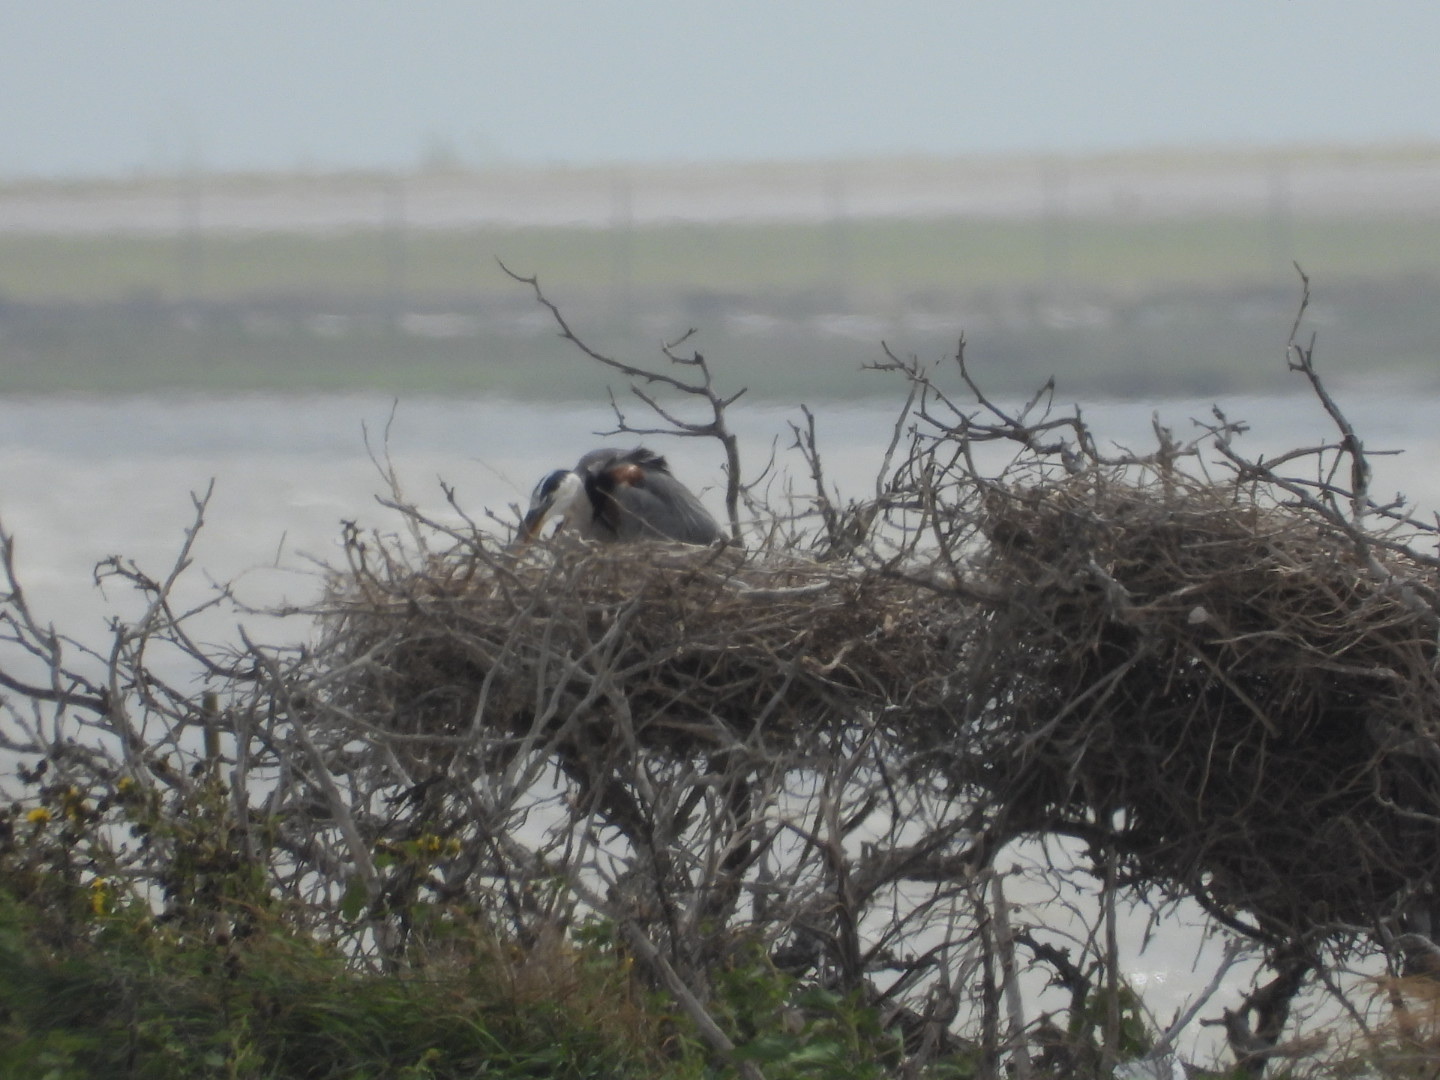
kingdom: Animalia
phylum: Chordata
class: Aves
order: Pelecaniformes
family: Ardeidae
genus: Ardea
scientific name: Ardea herodias
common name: Great blue heron
